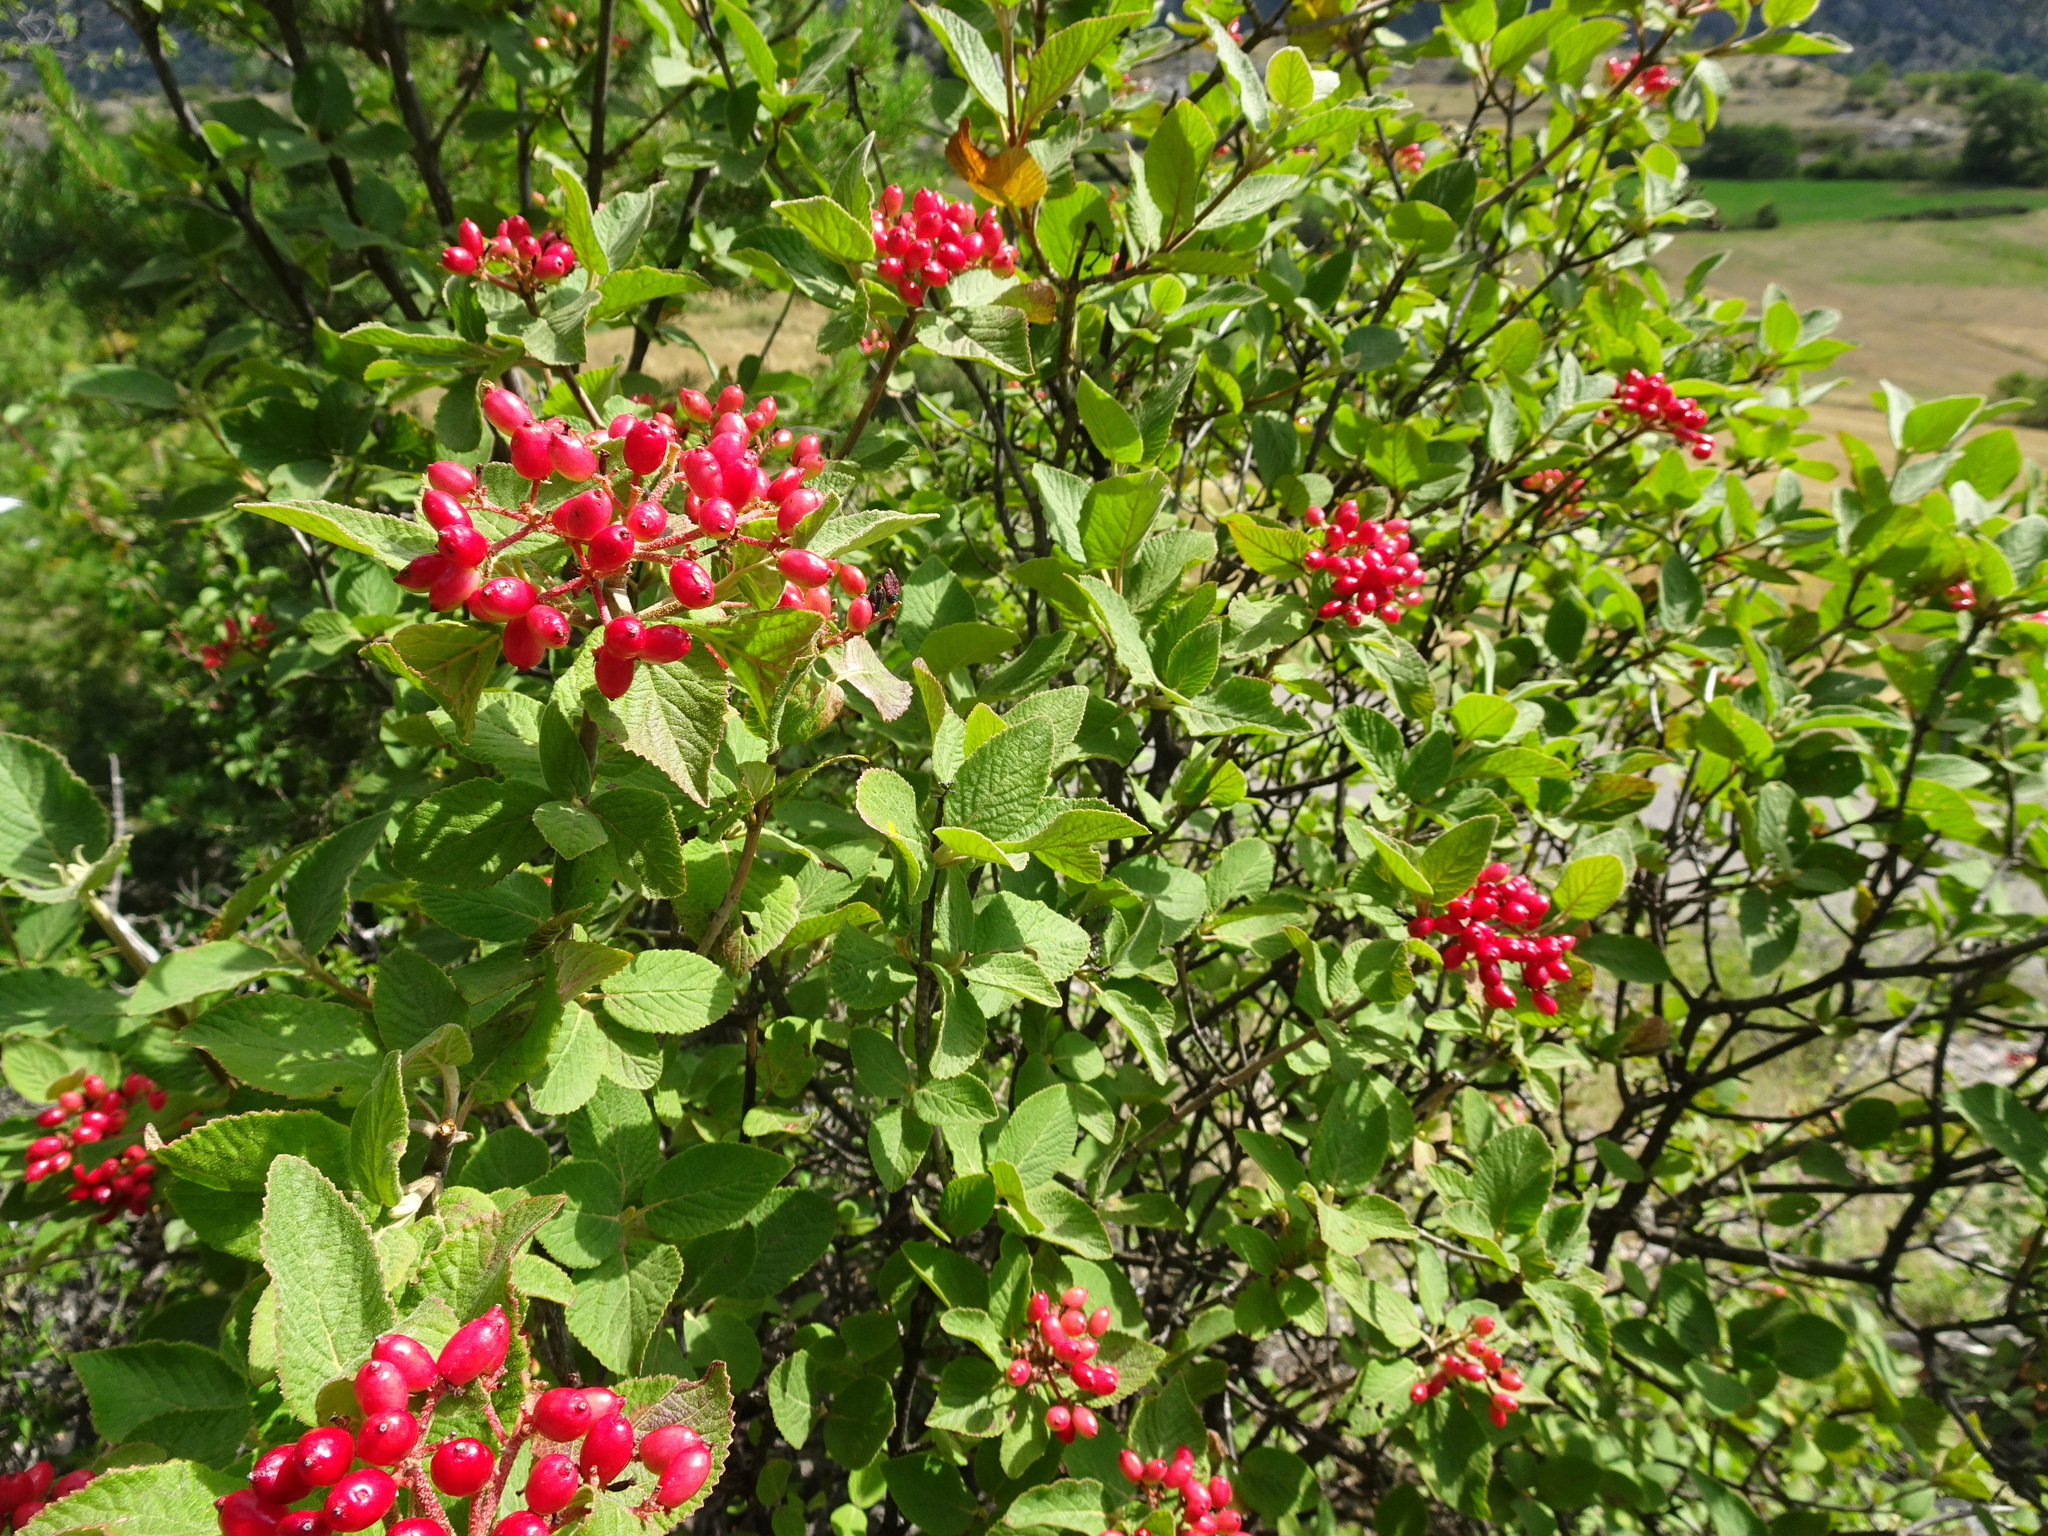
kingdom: Plantae
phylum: Tracheophyta
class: Magnoliopsida
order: Dipsacales
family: Viburnaceae
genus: Viburnum
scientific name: Viburnum lantana
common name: Wayfaring tree
